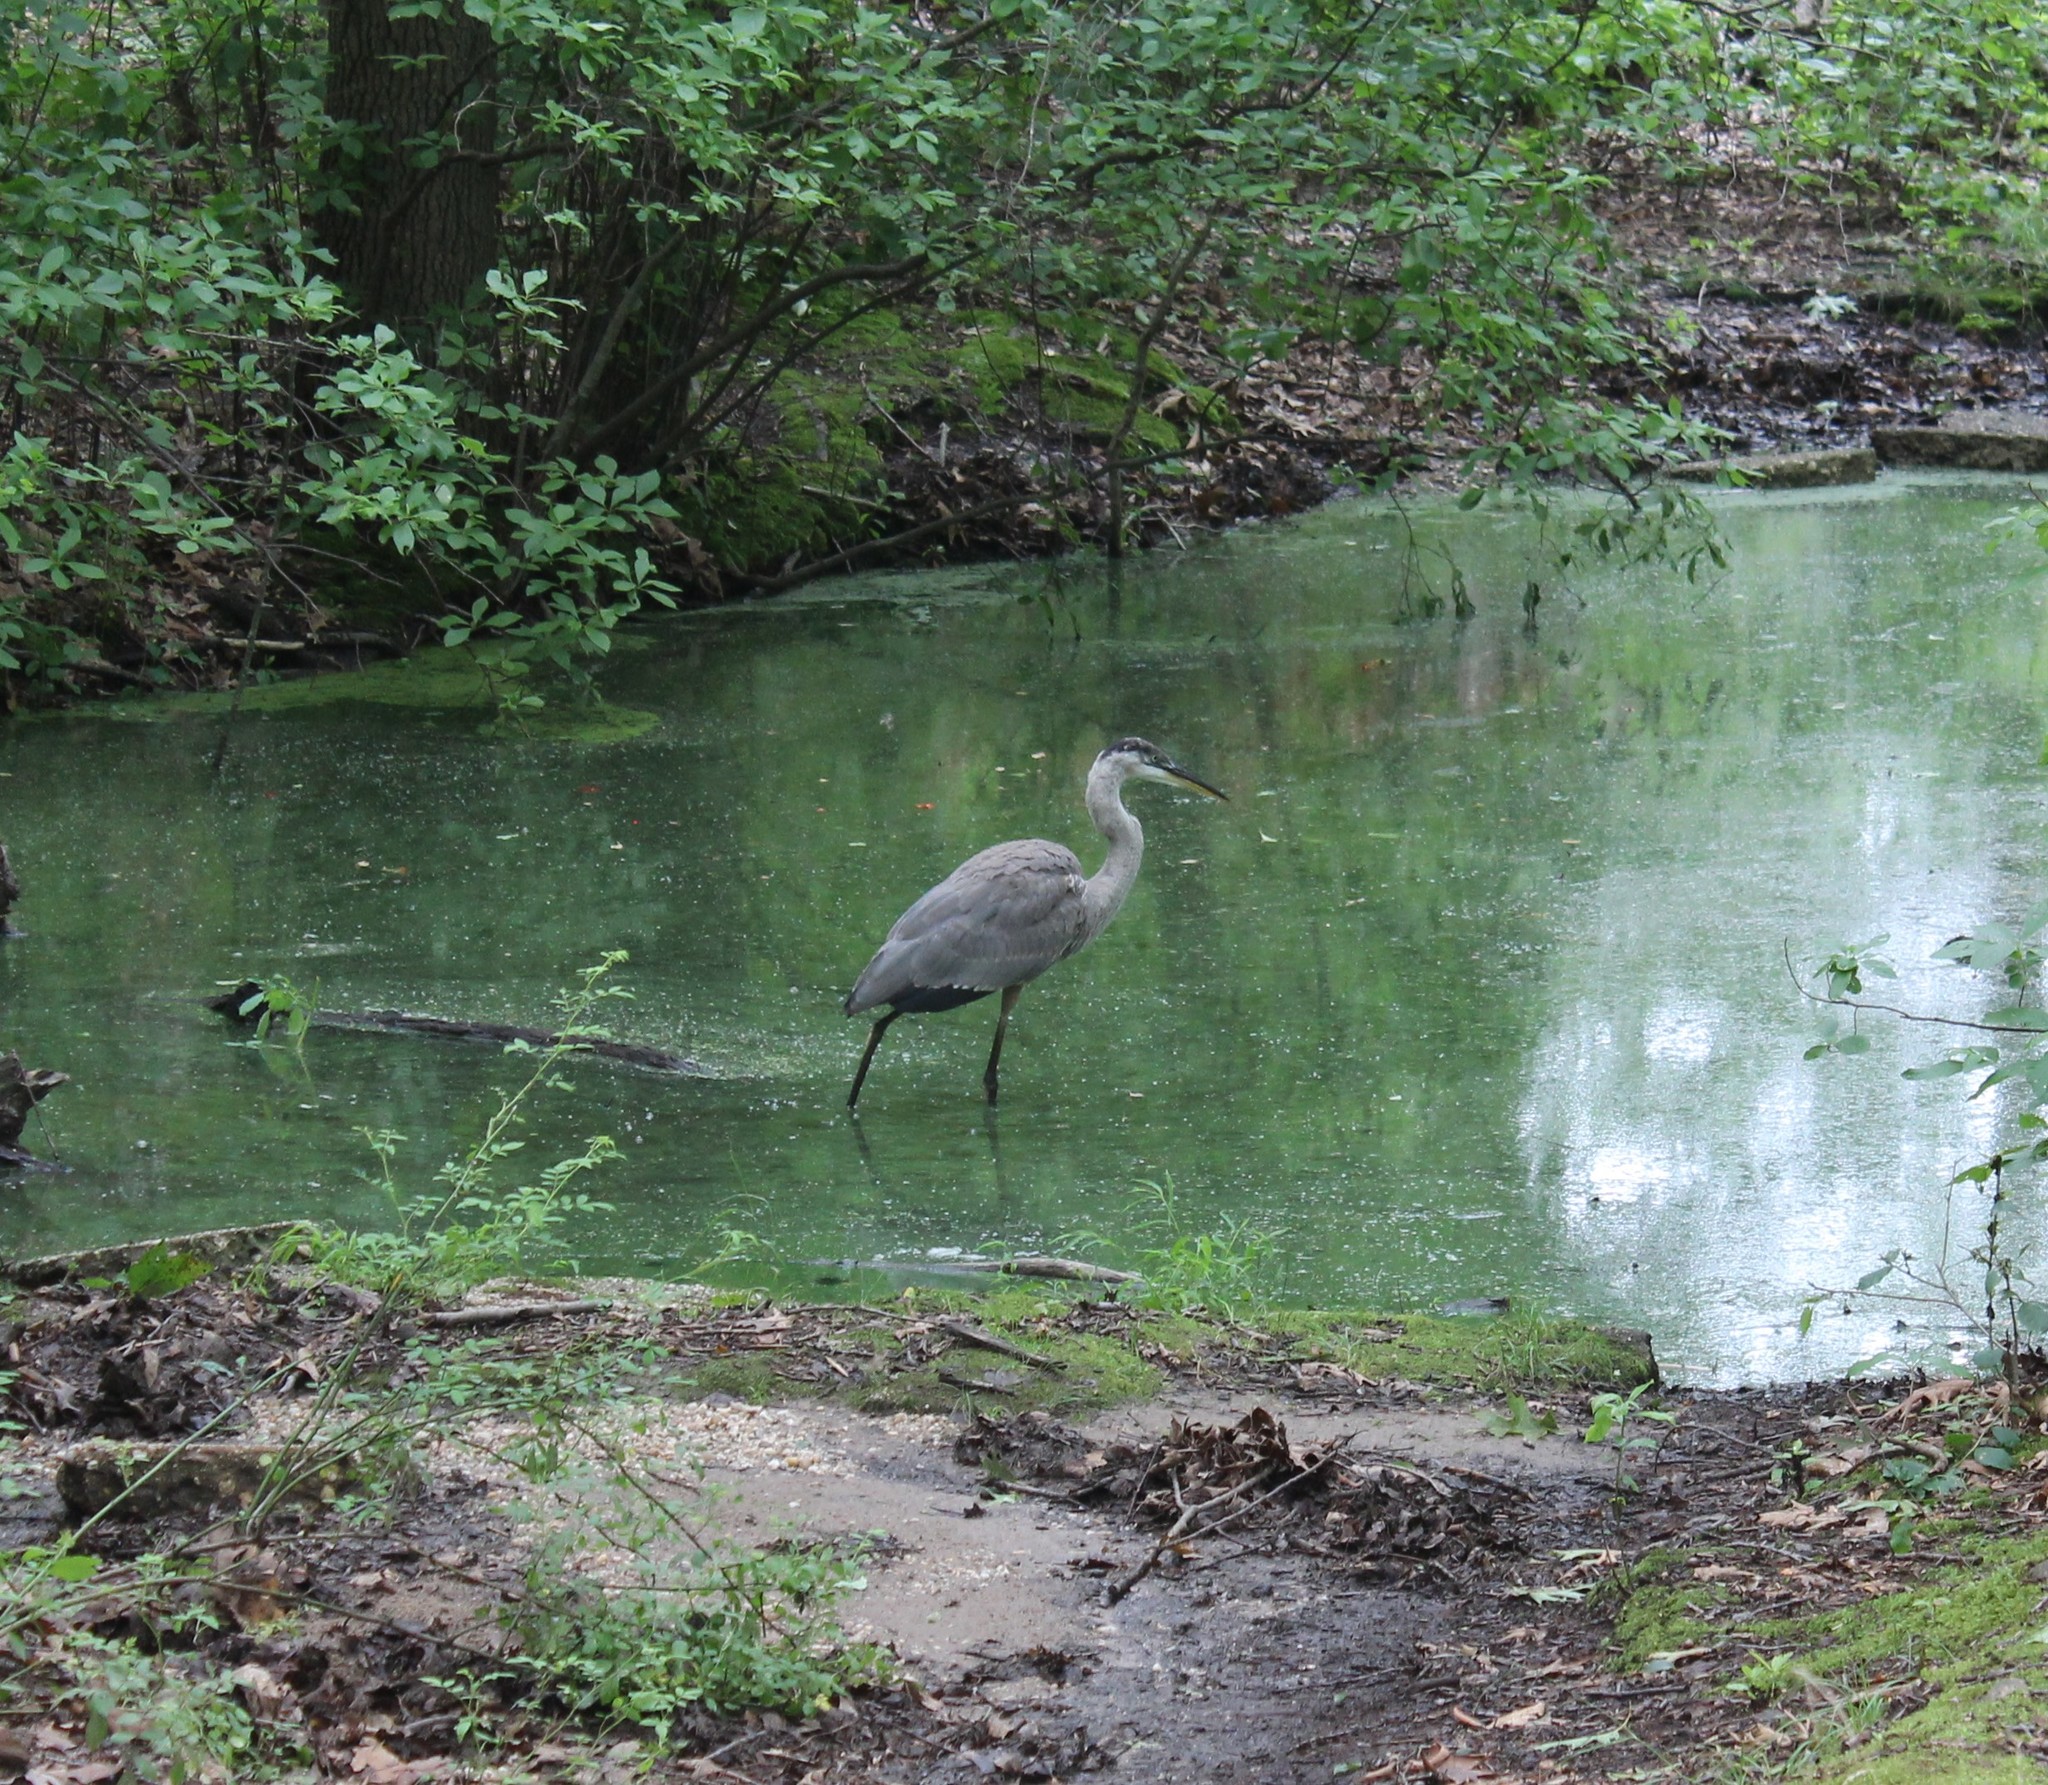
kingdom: Animalia
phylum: Chordata
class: Aves
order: Pelecaniformes
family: Ardeidae
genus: Ardea
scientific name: Ardea herodias
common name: Great blue heron
